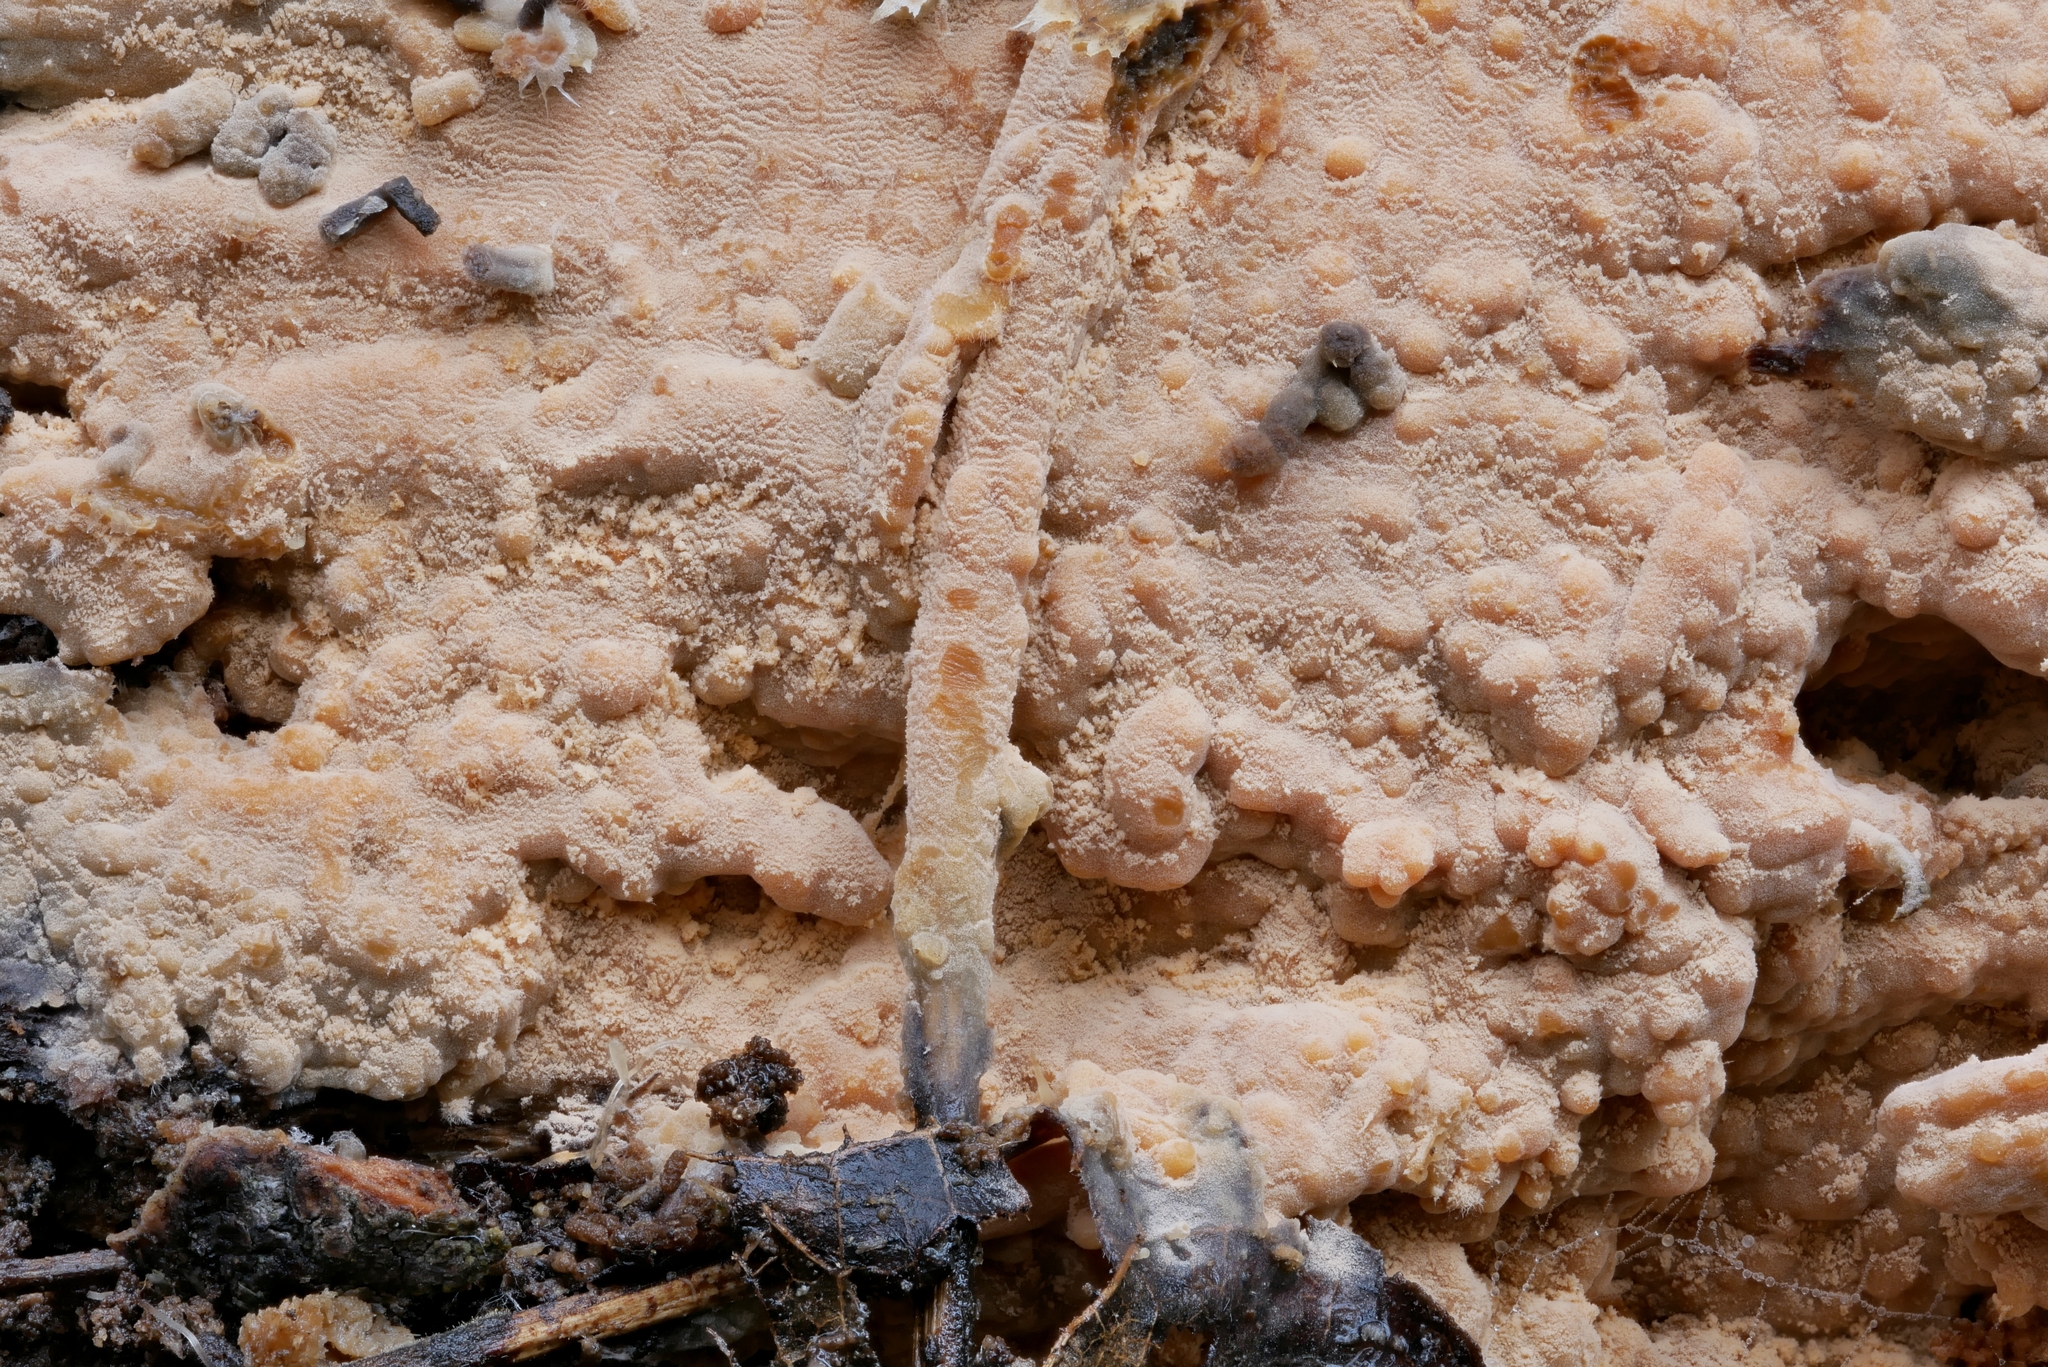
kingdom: Fungi
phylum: Basidiomycota
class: Agaricomycetes
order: Russulales
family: Peniophoraceae
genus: Dichostereum
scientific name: Dichostereum effuscatum
